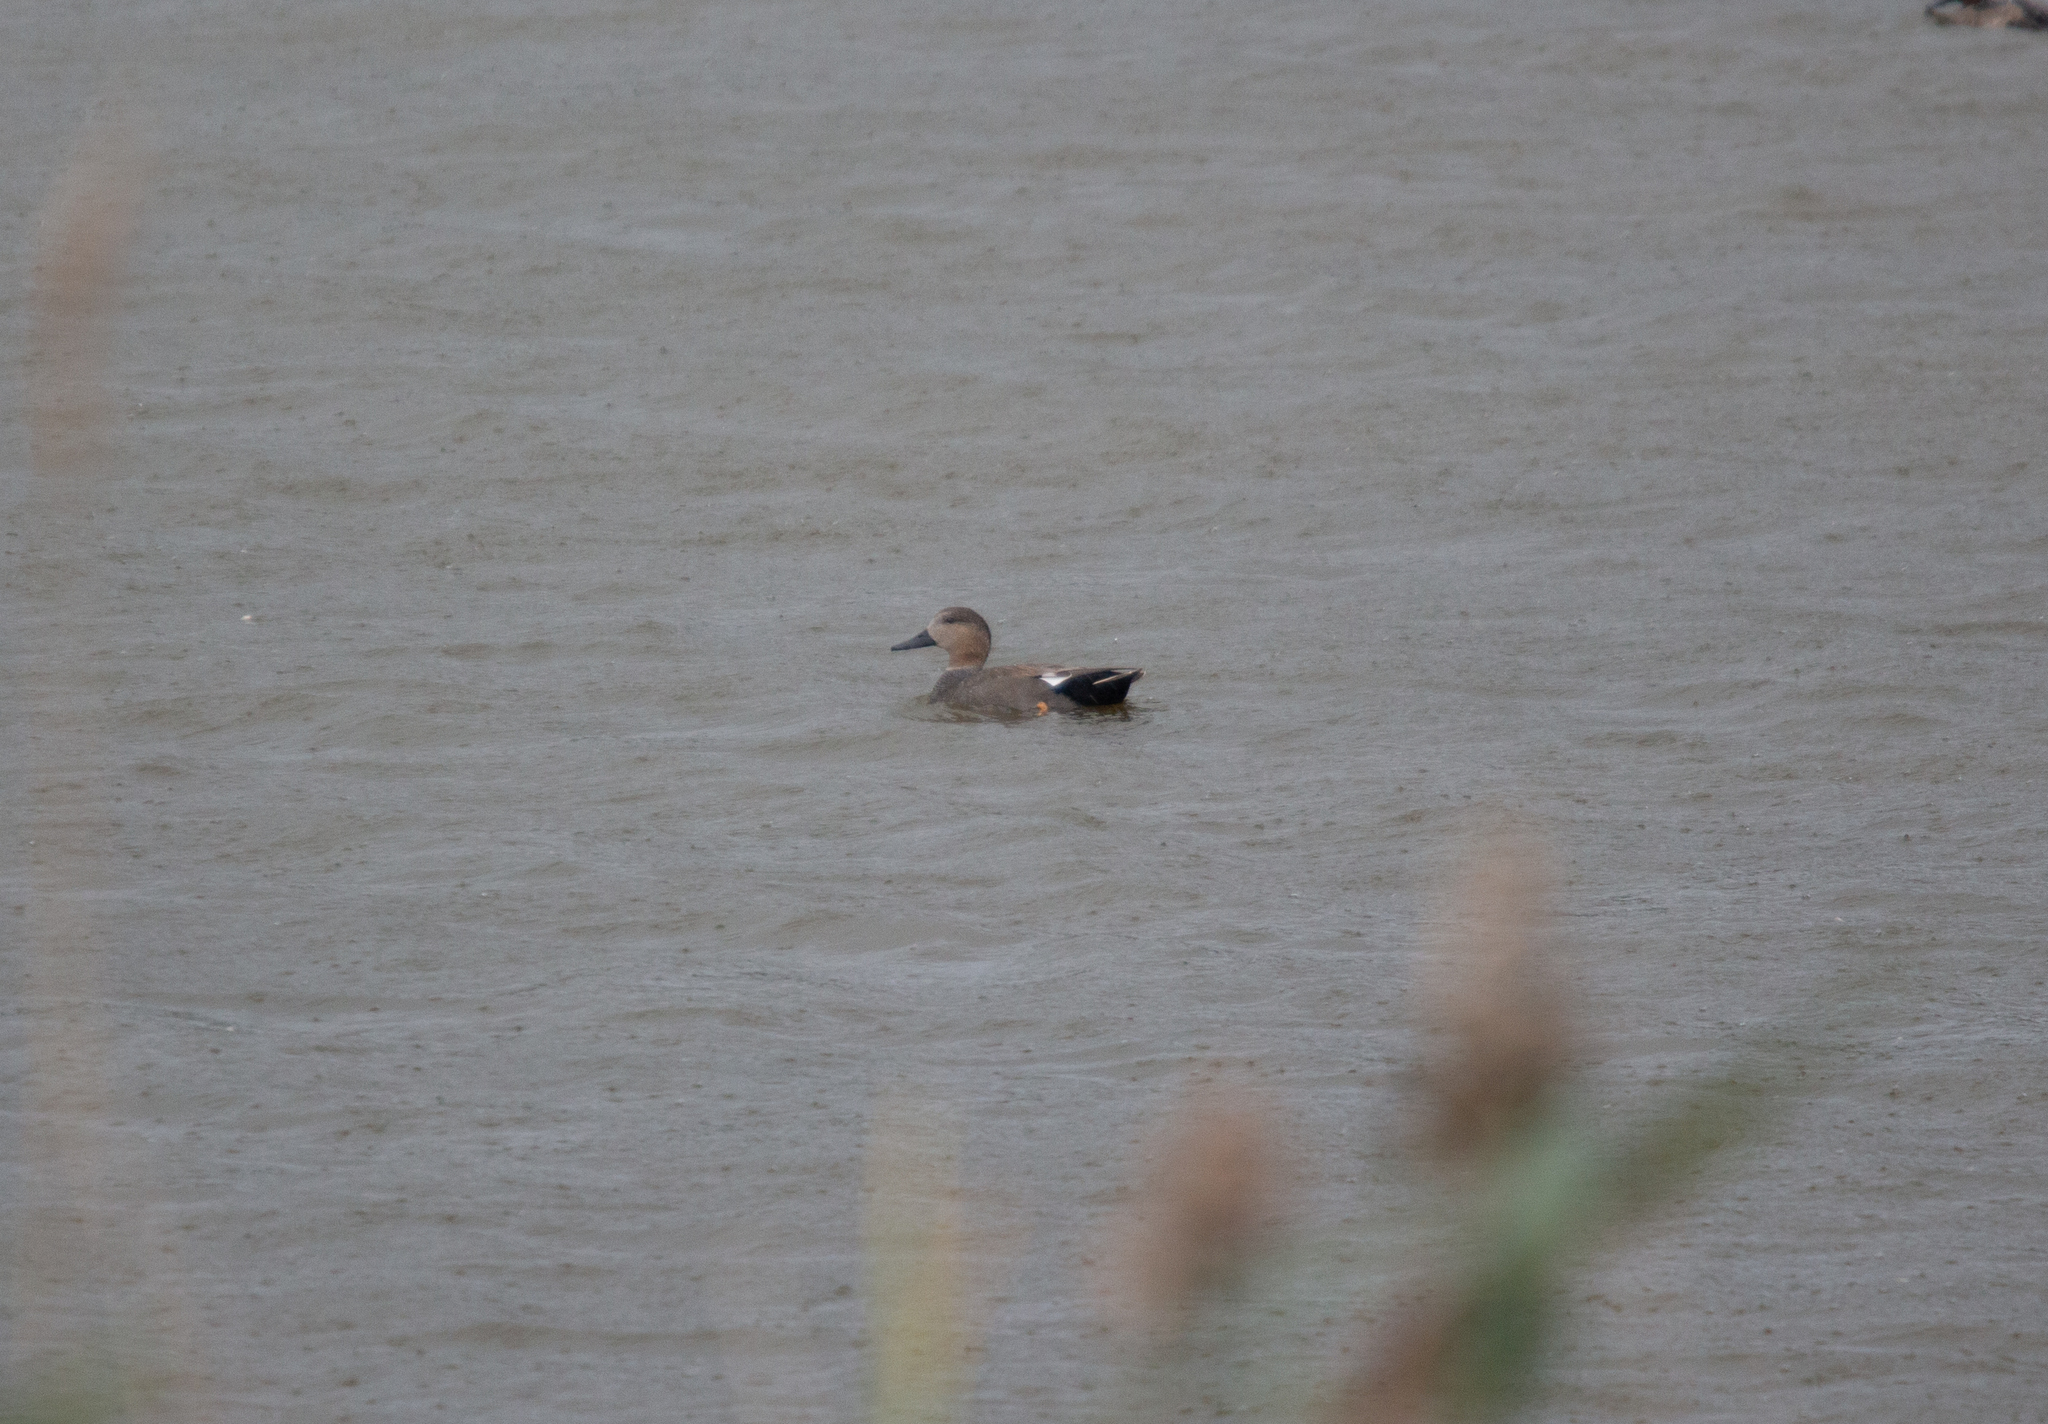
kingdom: Animalia
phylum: Chordata
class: Aves
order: Anseriformes
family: Anatidae
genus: Mareca
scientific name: Mareca strepera
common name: Gadwall
